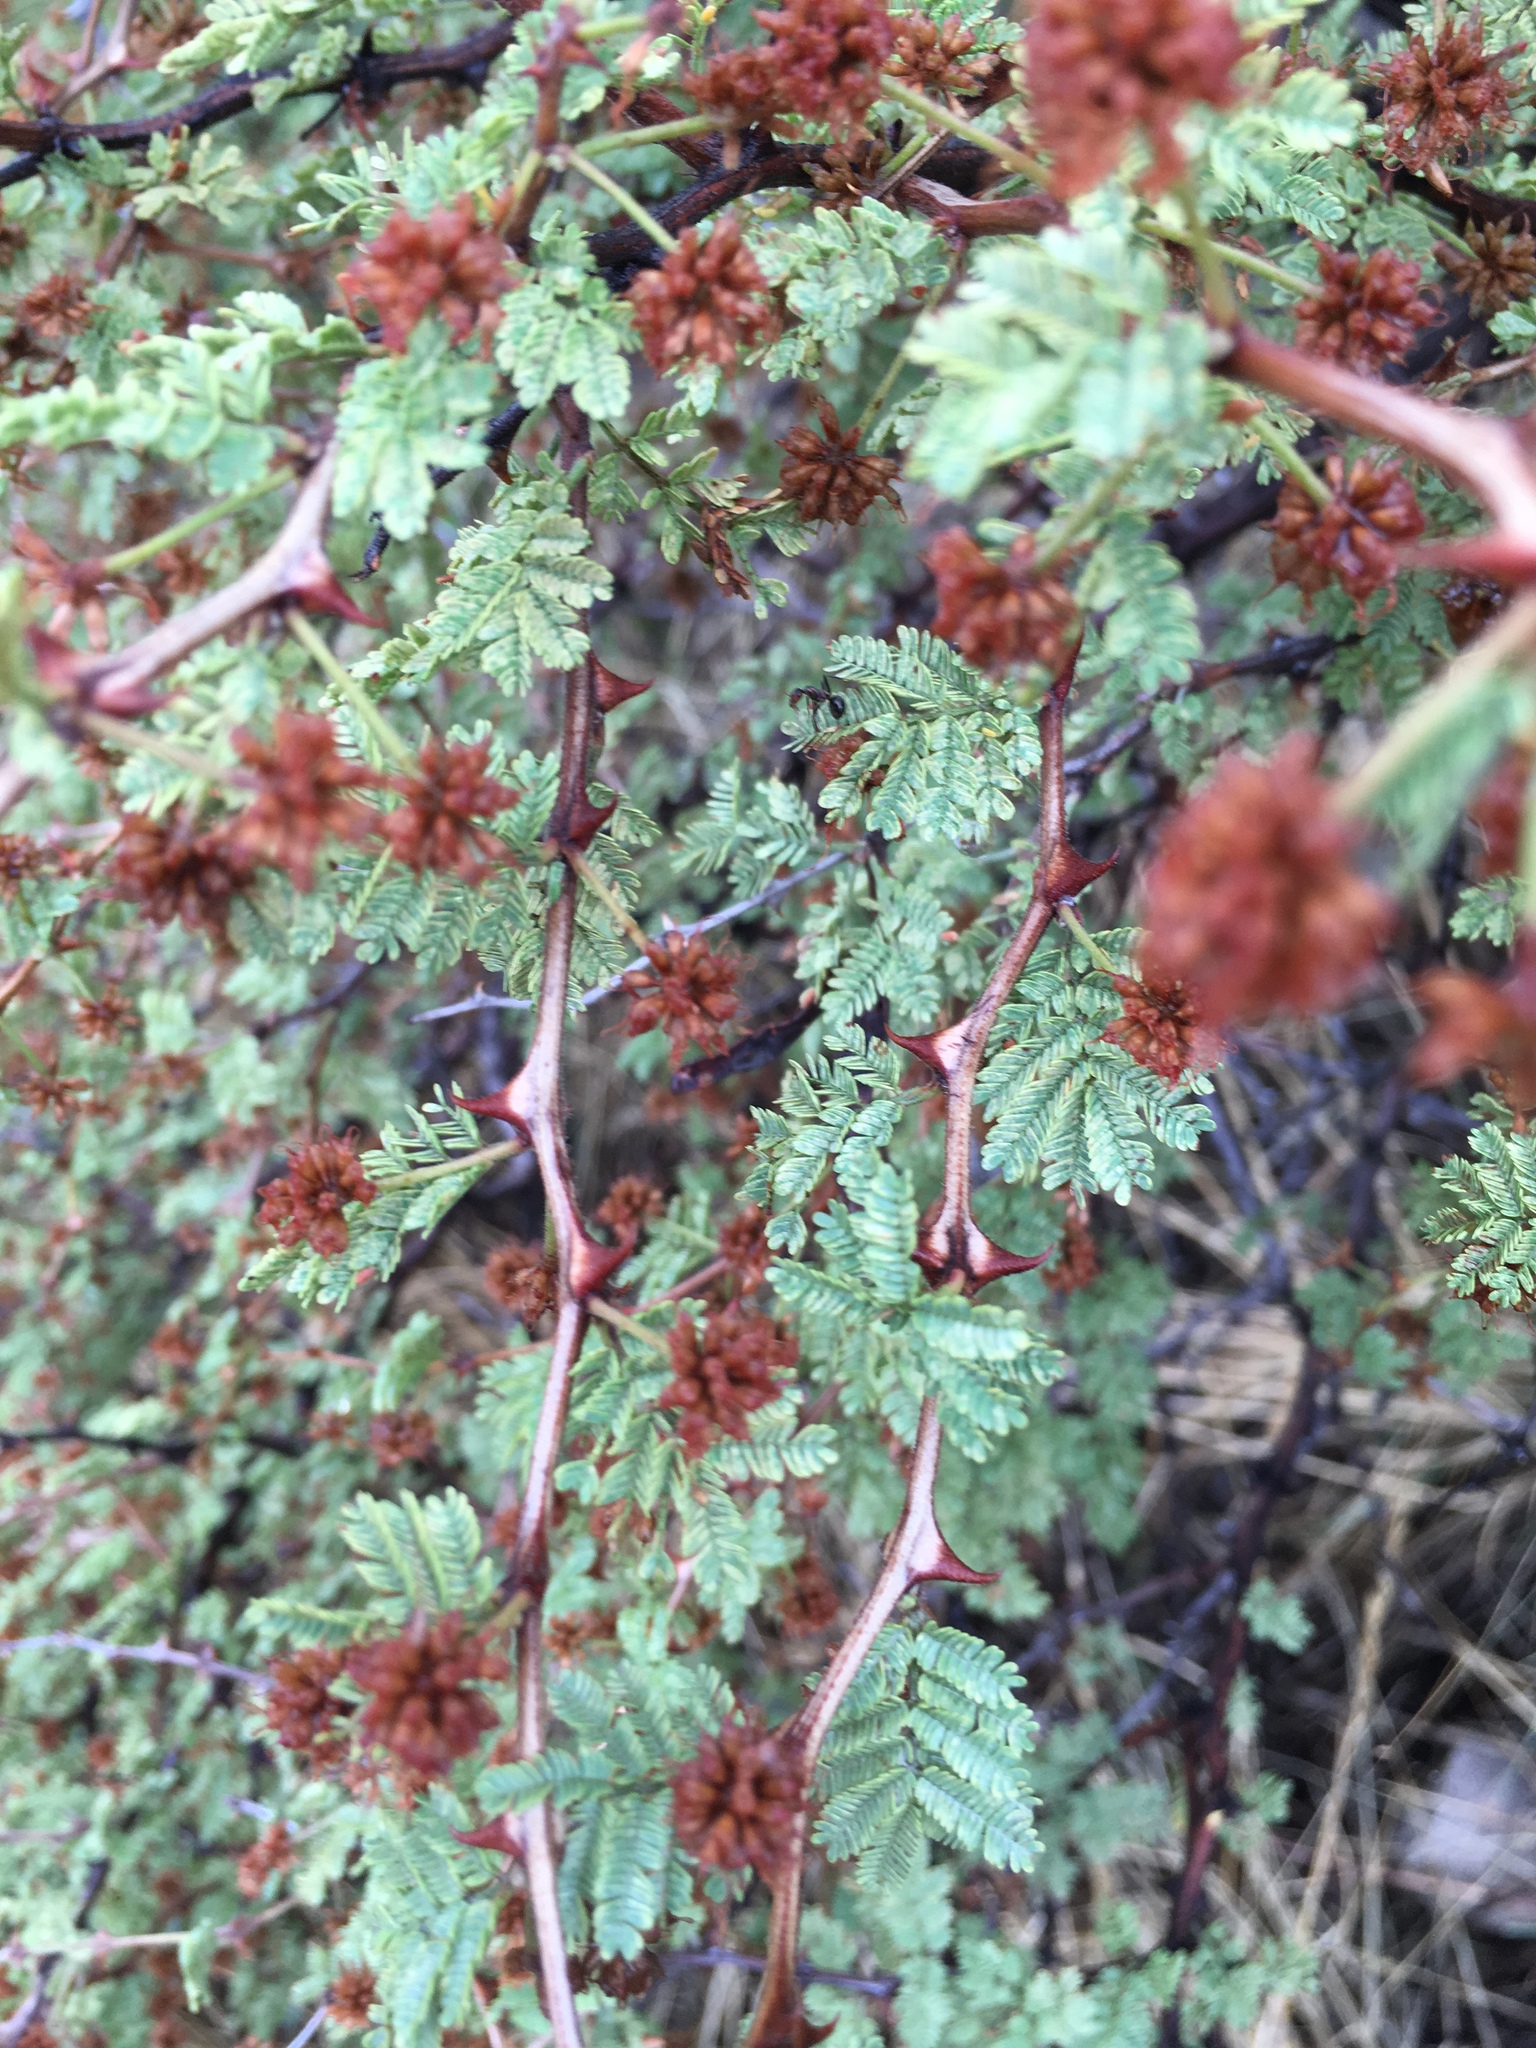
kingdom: Plantae
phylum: Tracheophyta
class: Magnoliopsida
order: Fabales
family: Fabaceae
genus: Mimosa
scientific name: Mimosa aculeaticarpa
